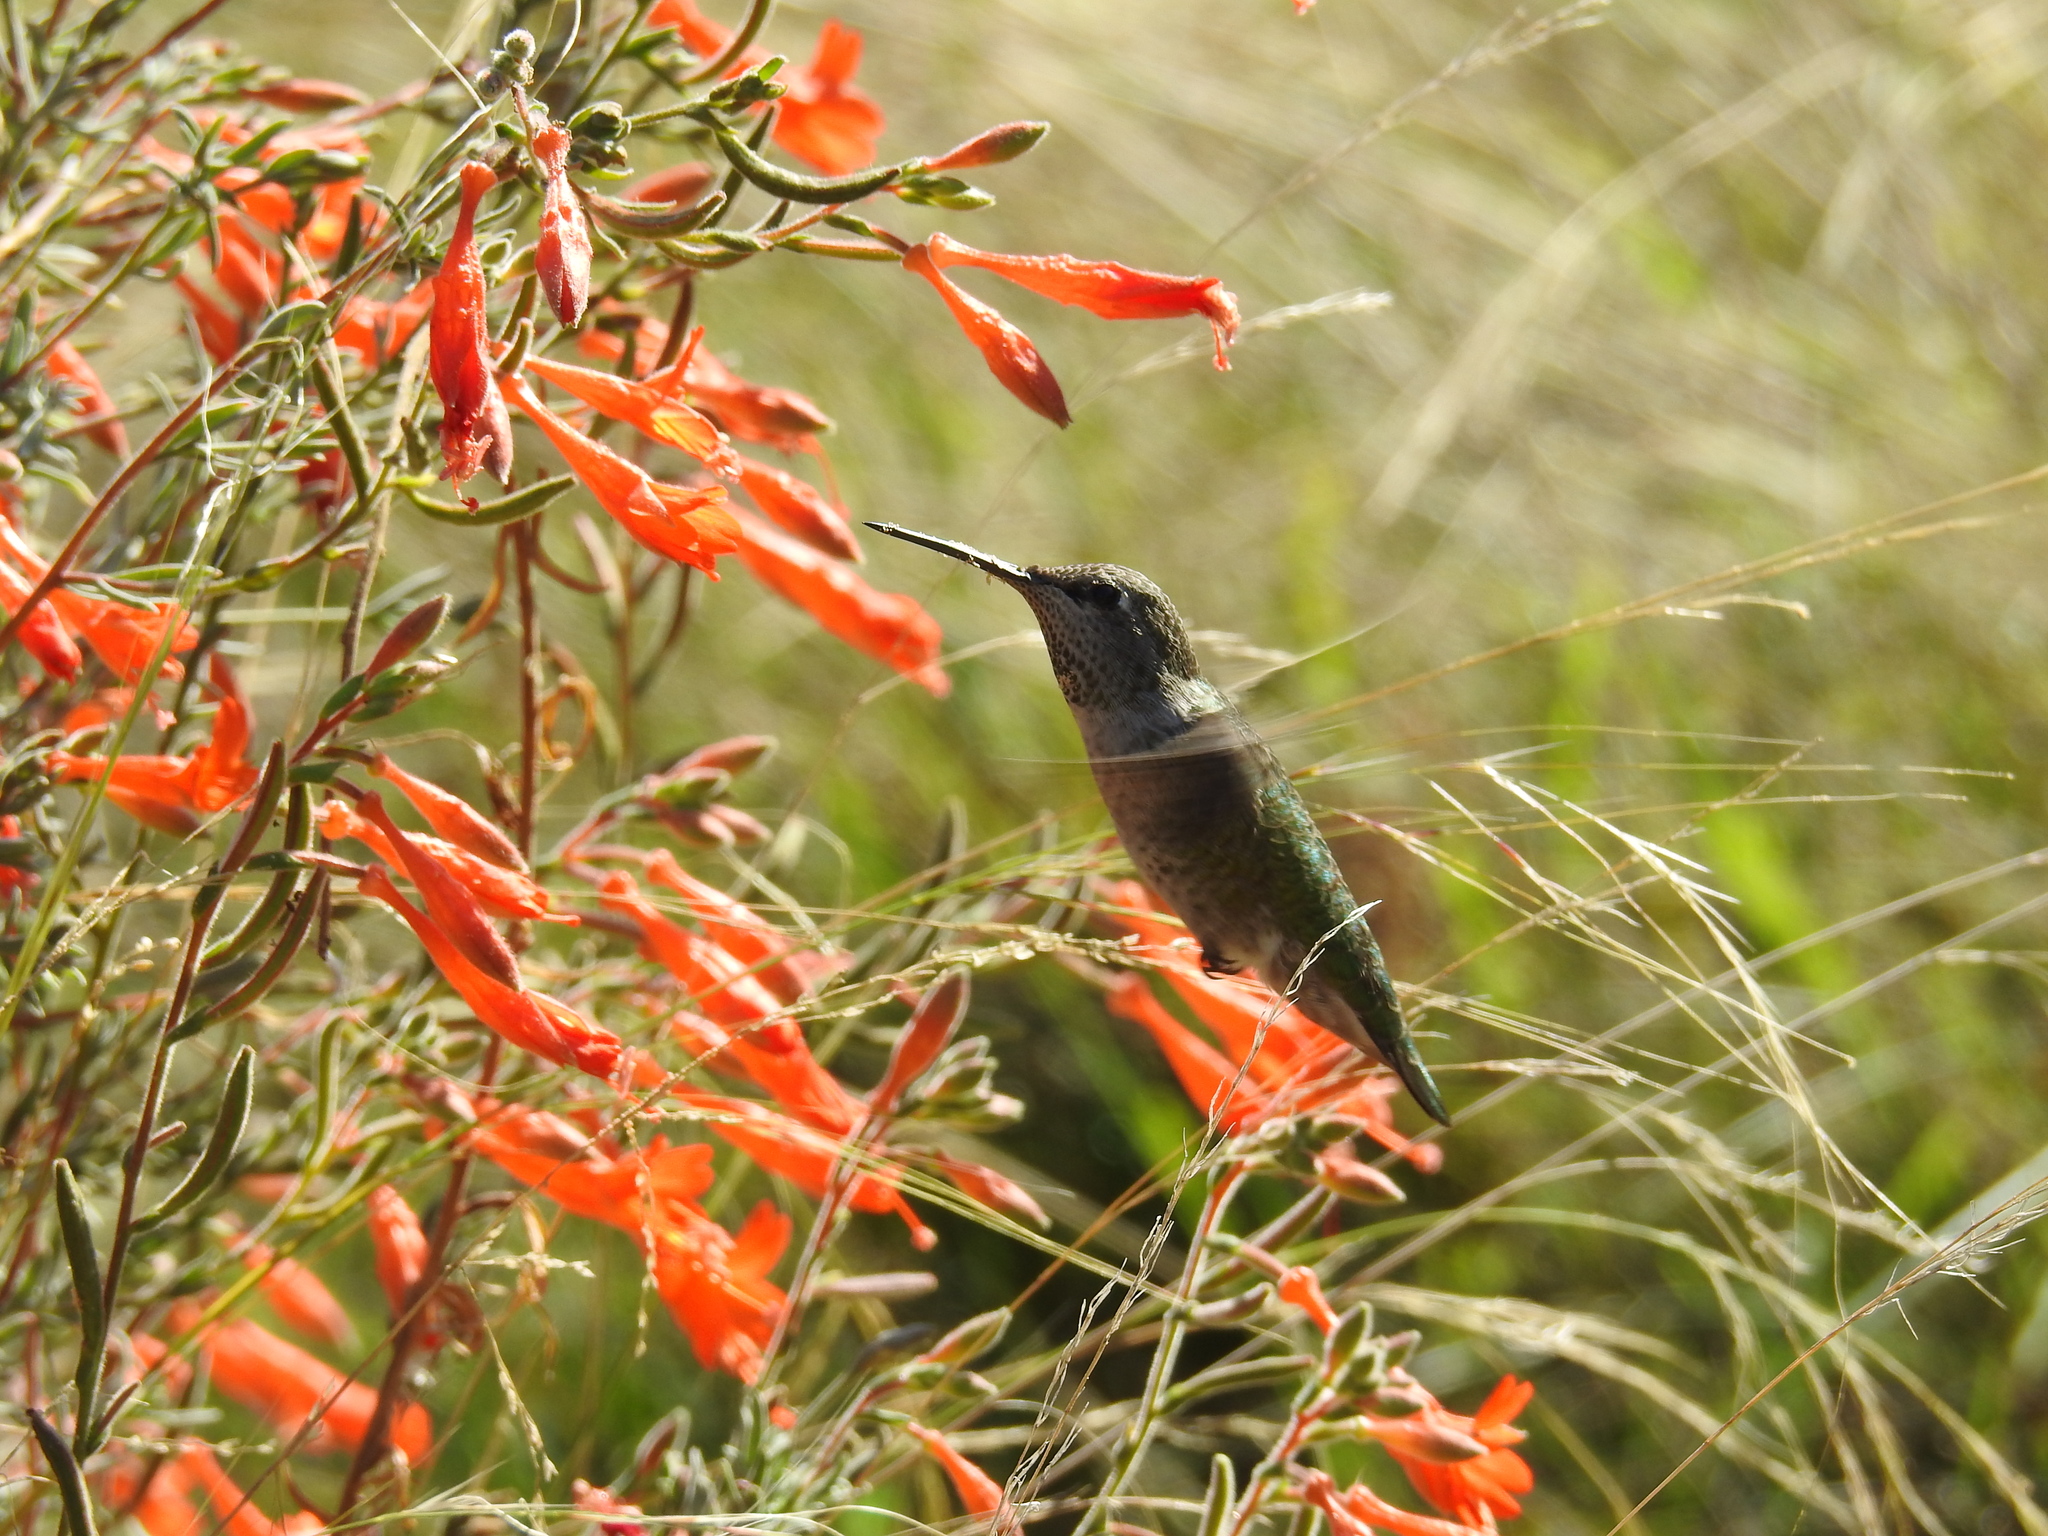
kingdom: Animalia
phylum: Chordata
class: Aves
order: Apodiformes
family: Trochilidae
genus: Calypte
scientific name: Calypte anna
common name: Anna's hummingbird
